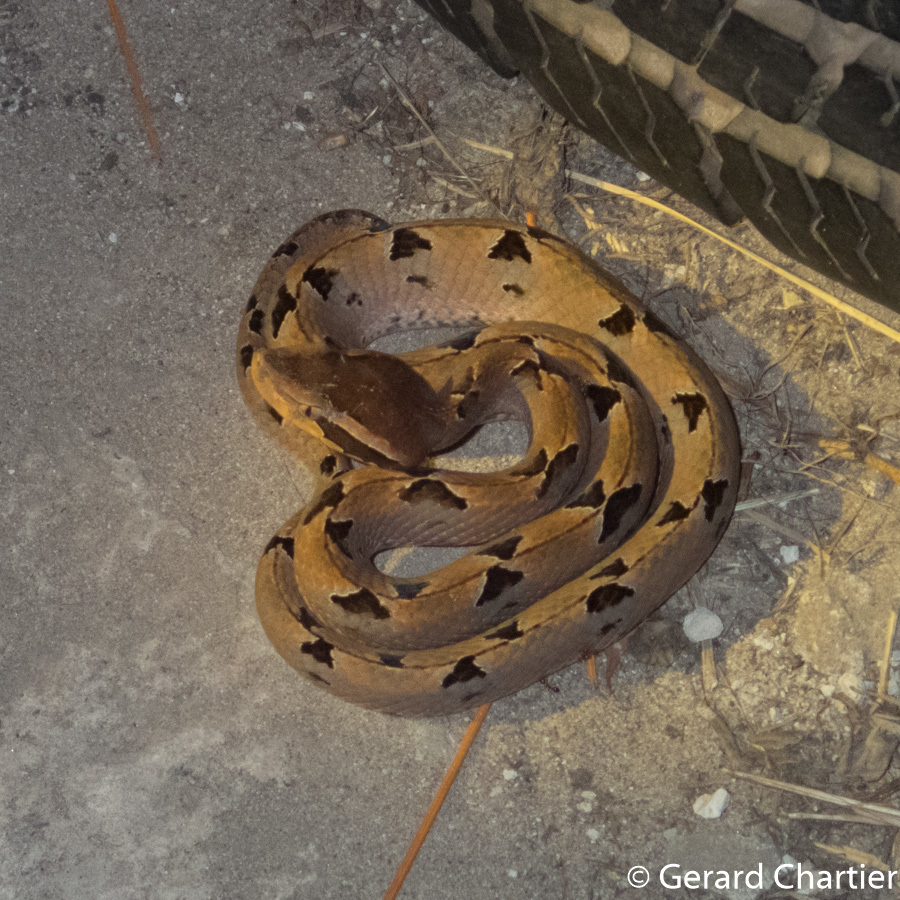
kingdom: Animalia
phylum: Chordata
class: Squamata
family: Viperidae
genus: Calloselasma
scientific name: Calloselasma rhodostoma
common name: Malayan pit viper
